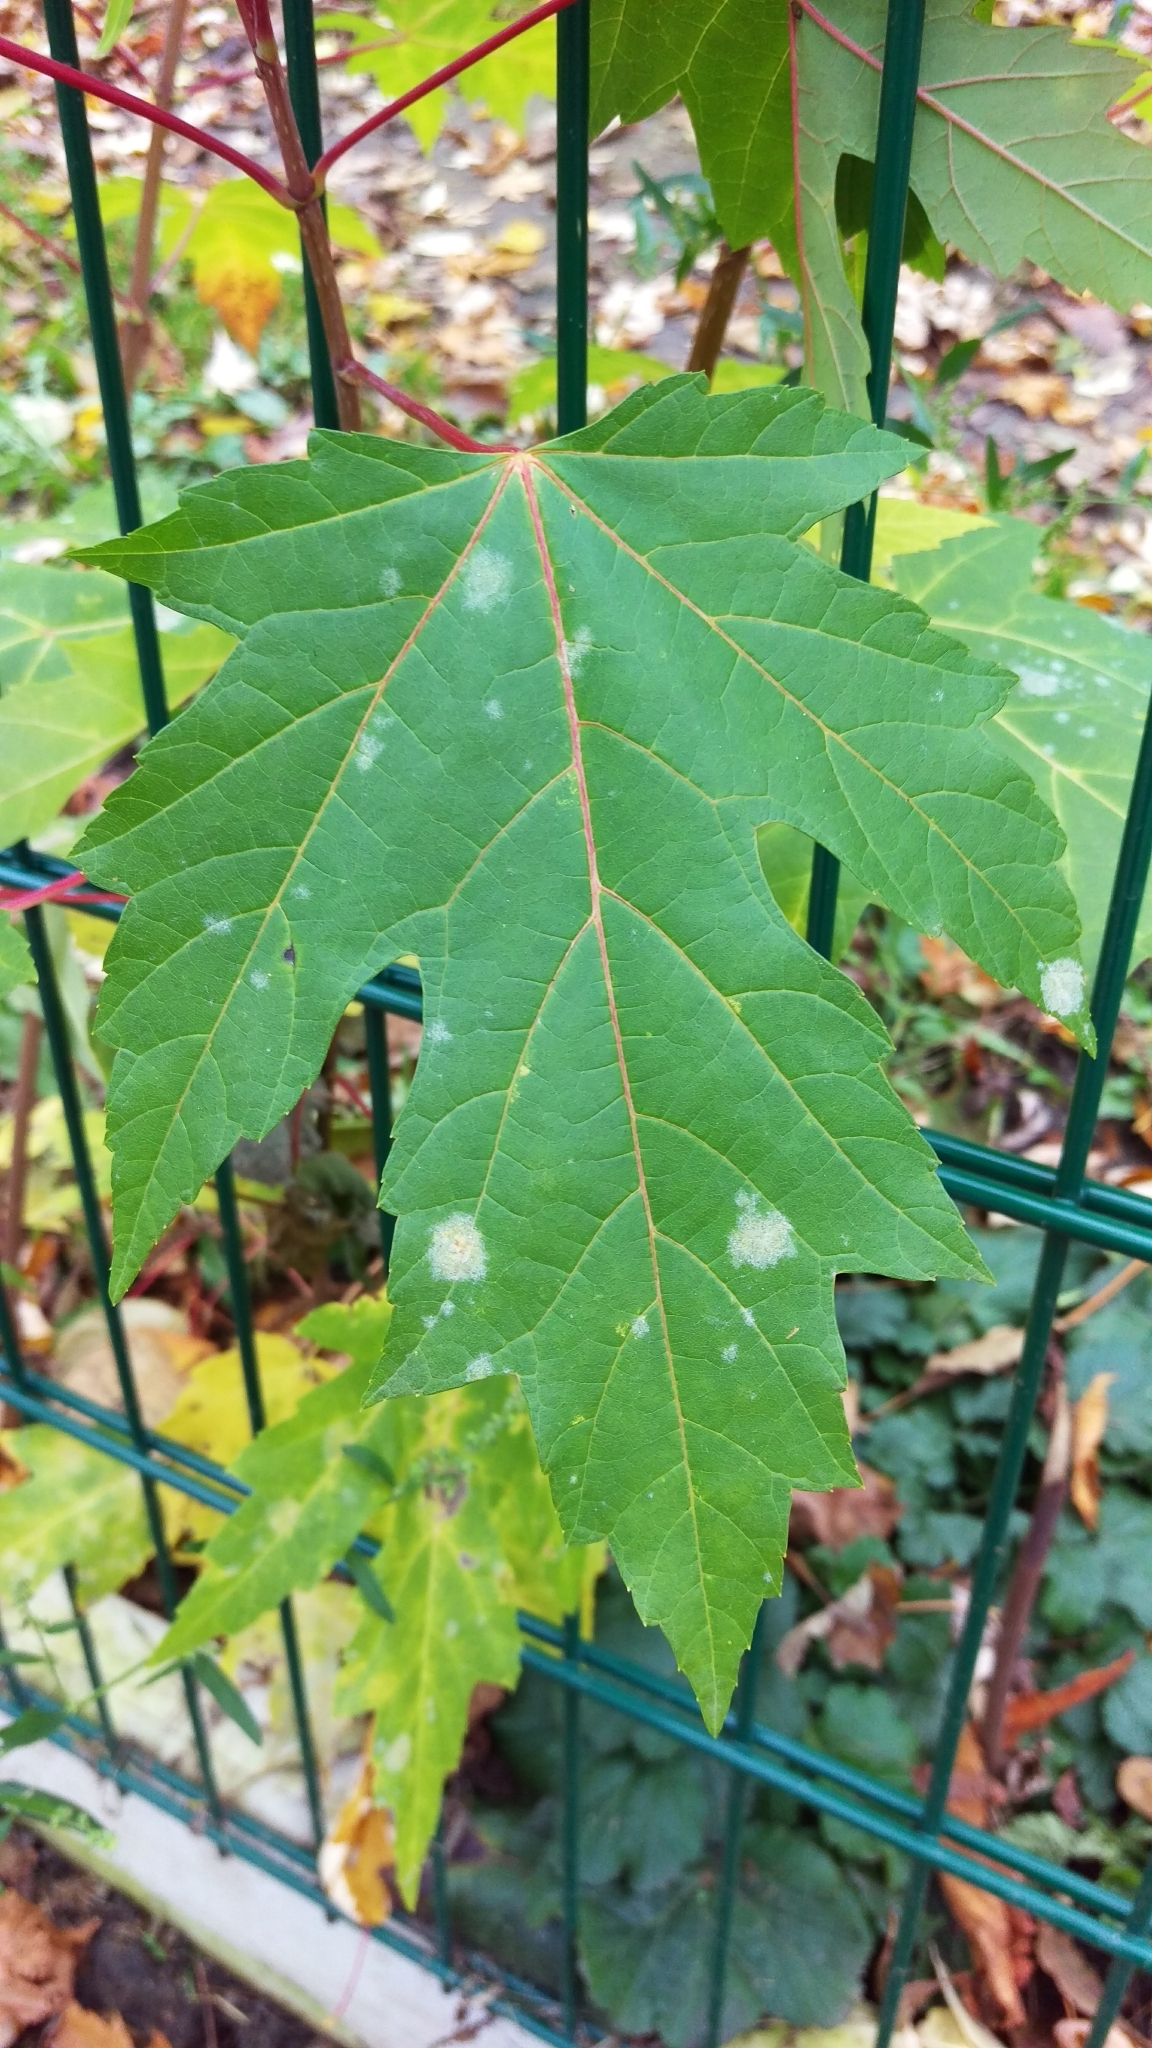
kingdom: Plantae
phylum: Tracheophyta
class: Magnoliopsida
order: Sapindales
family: Sapindaceae
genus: Acer
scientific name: Acer saccharinum
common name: Silver maple
